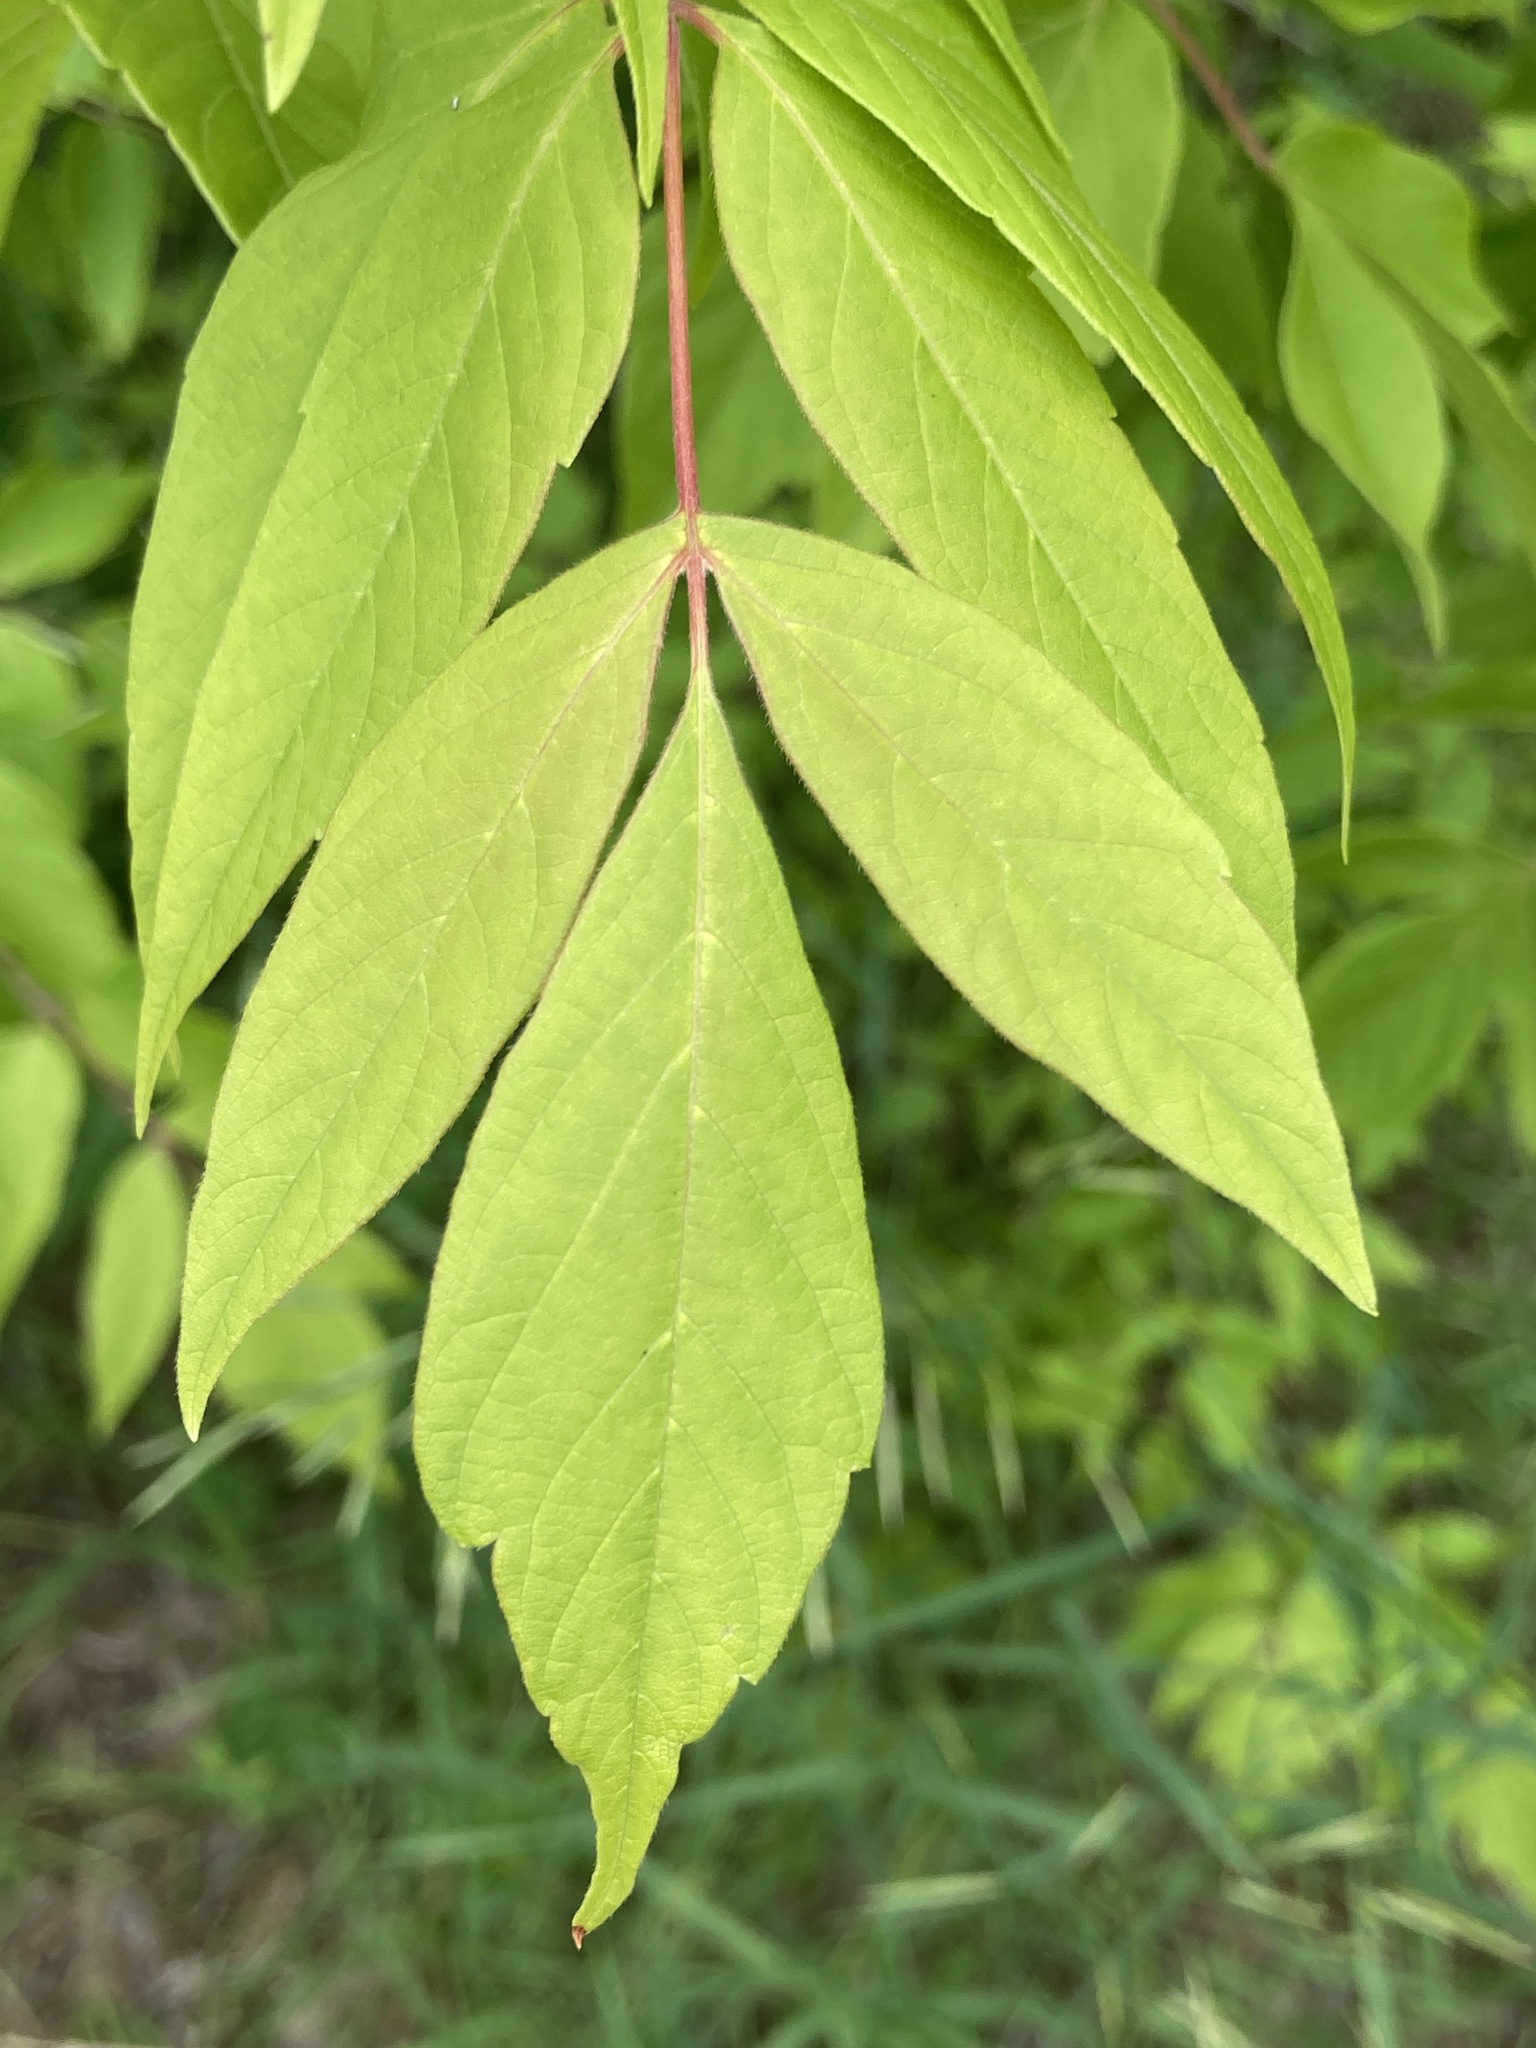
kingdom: Plantae
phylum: Tracheophyta
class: Magnoliopsida
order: Sapindales
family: Sapindaceae
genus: Acer
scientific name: Acer negundo
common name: Ashleaf maple
